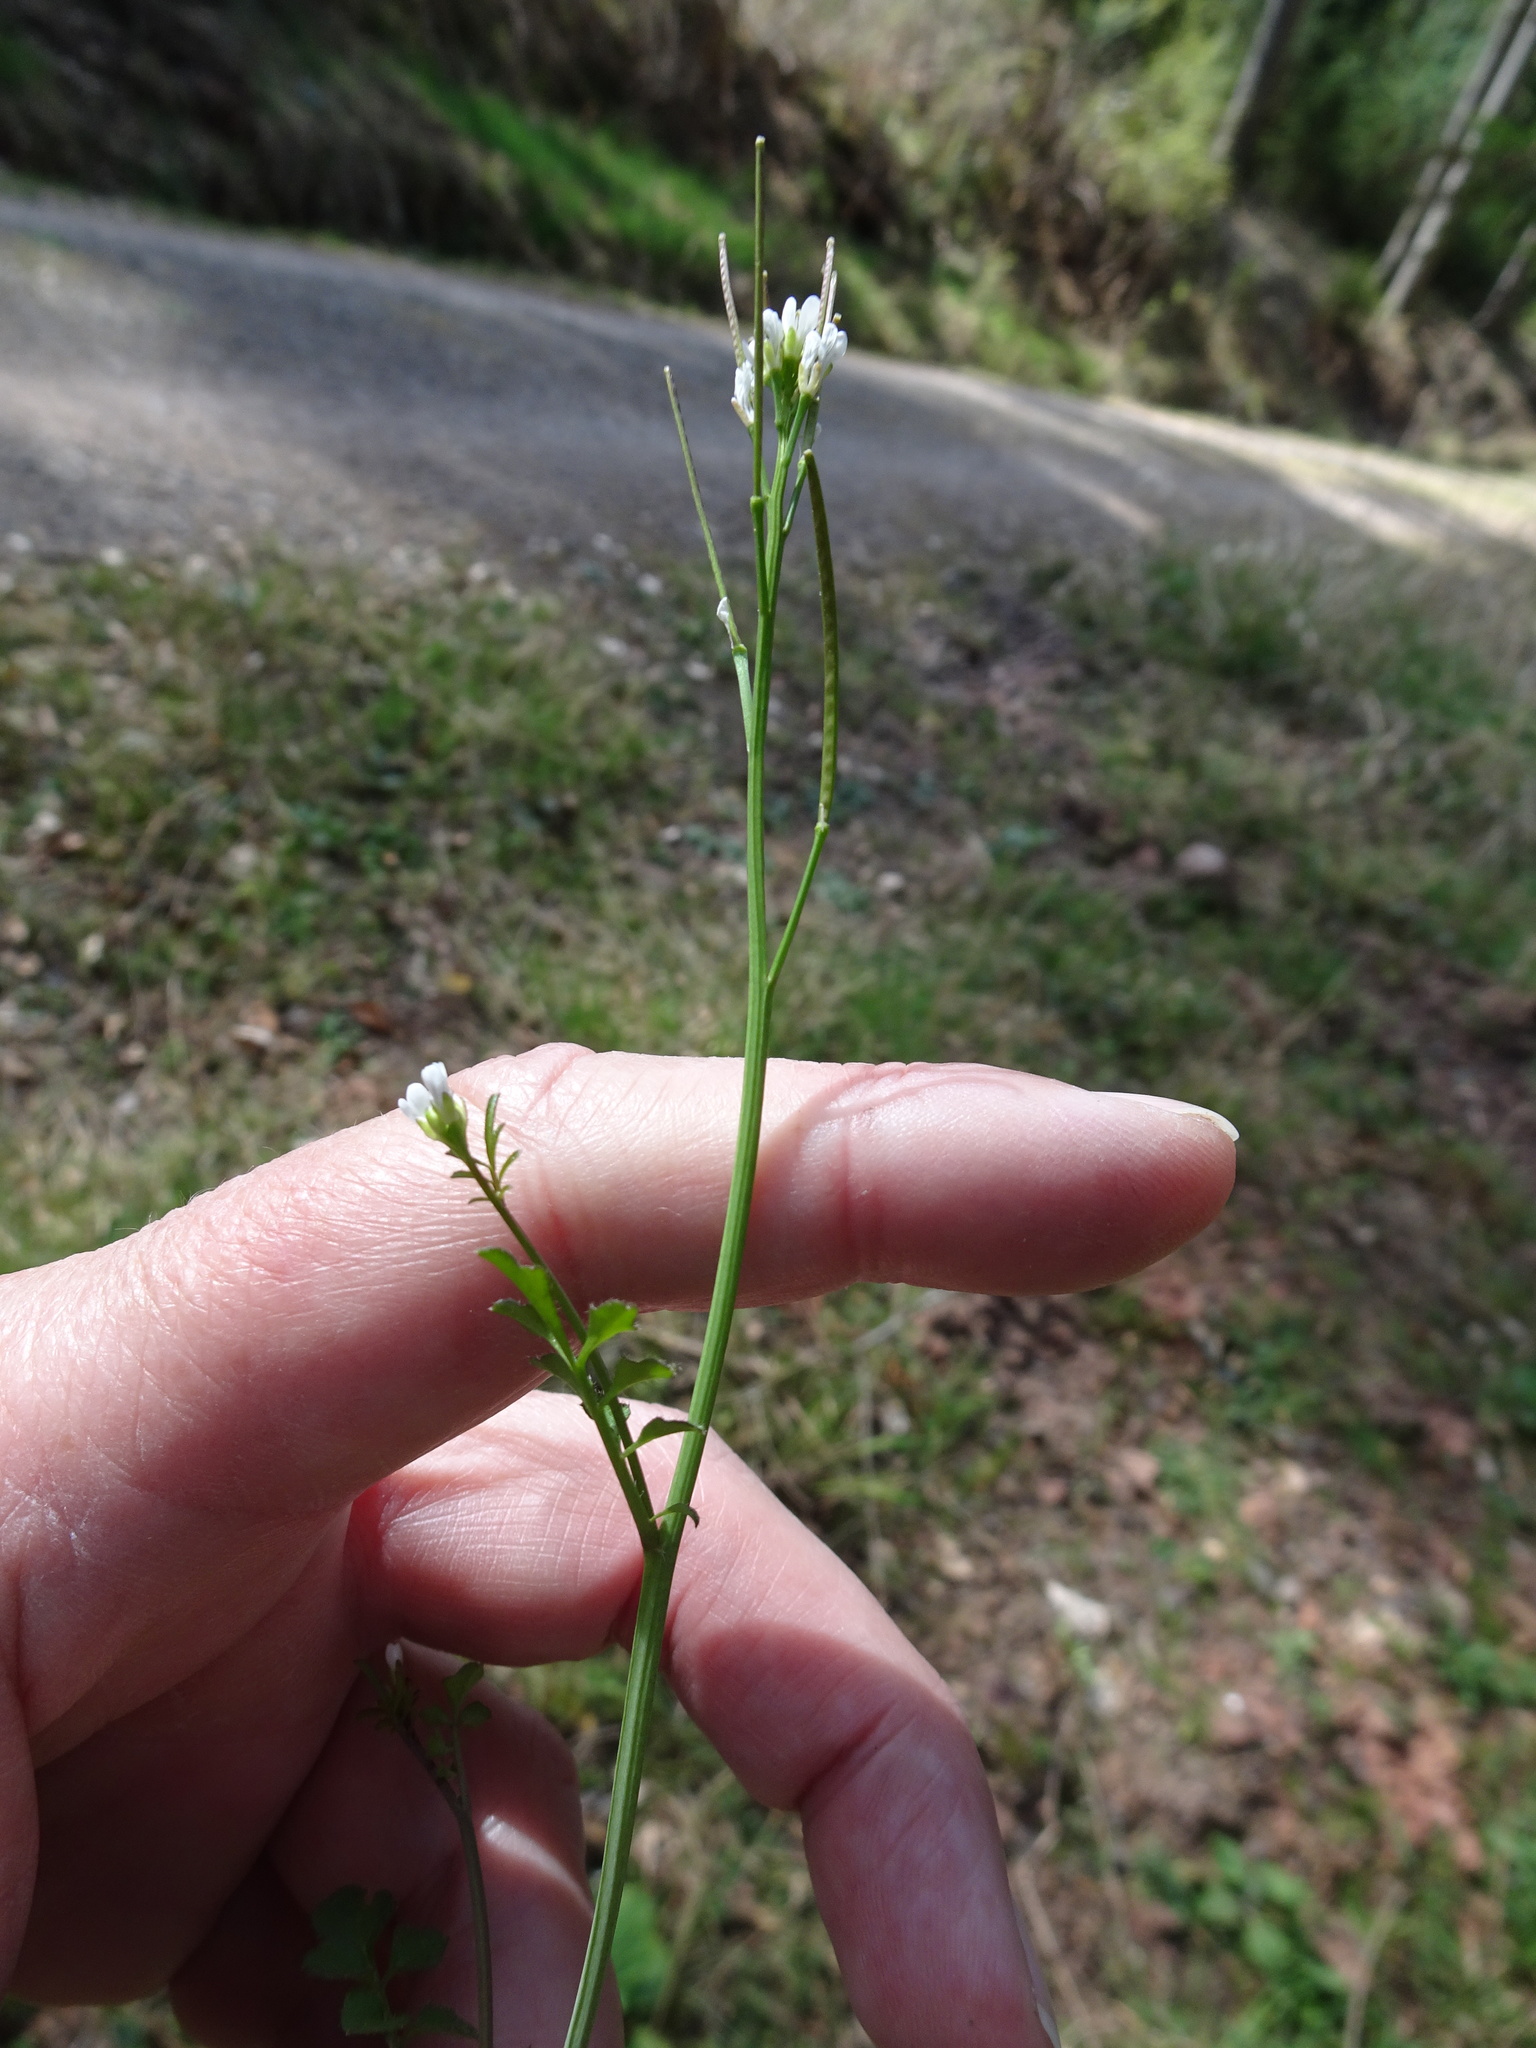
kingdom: Plantae
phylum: Tracheophyta
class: Magnoliopsida
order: Brassicales
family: Brassicaceae
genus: Cardamine
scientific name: Cardamine hirsuta
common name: Hairy bittercress
